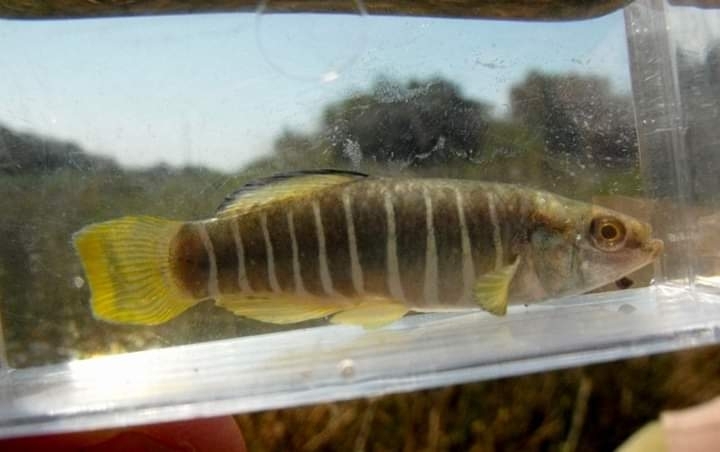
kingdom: Animalia
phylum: Chordata
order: Cyprinodontiformes
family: Cyprinodontidae
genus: Aphanius
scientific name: Aphanius fasciatus
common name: Mediterranean banded killifish
